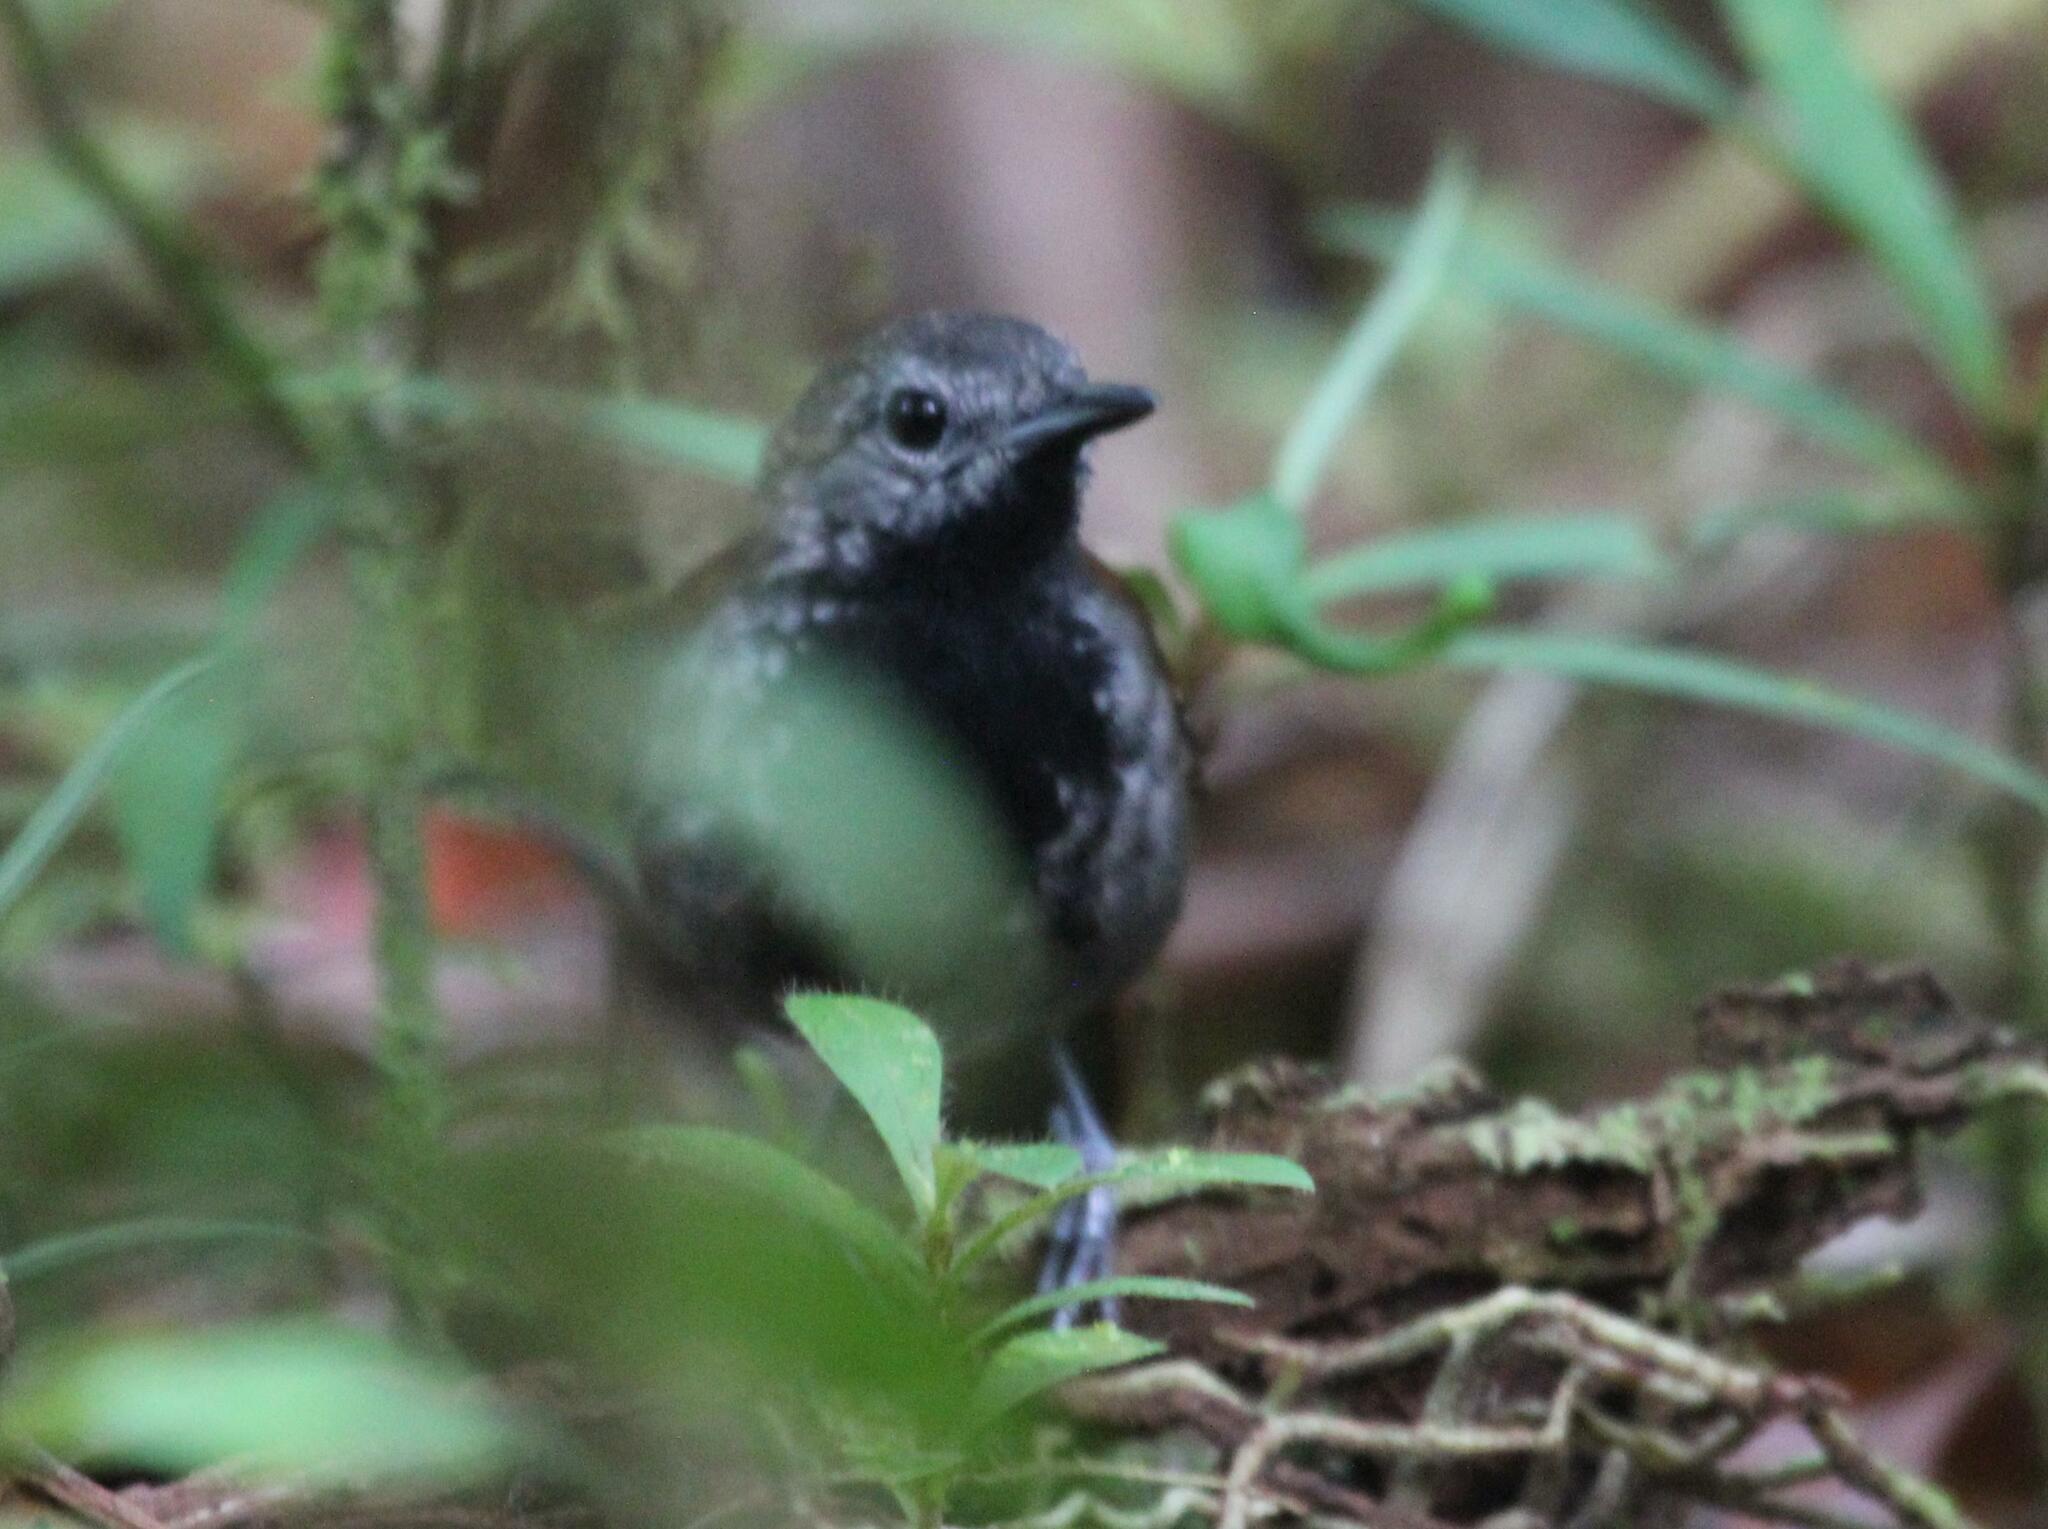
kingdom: Animalia
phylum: Chordata
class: Aves
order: Passeriformes
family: Thamnophilidae
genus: Myrmeciza
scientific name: Myrmeciza pelzelni
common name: Grey-bellied antbird
